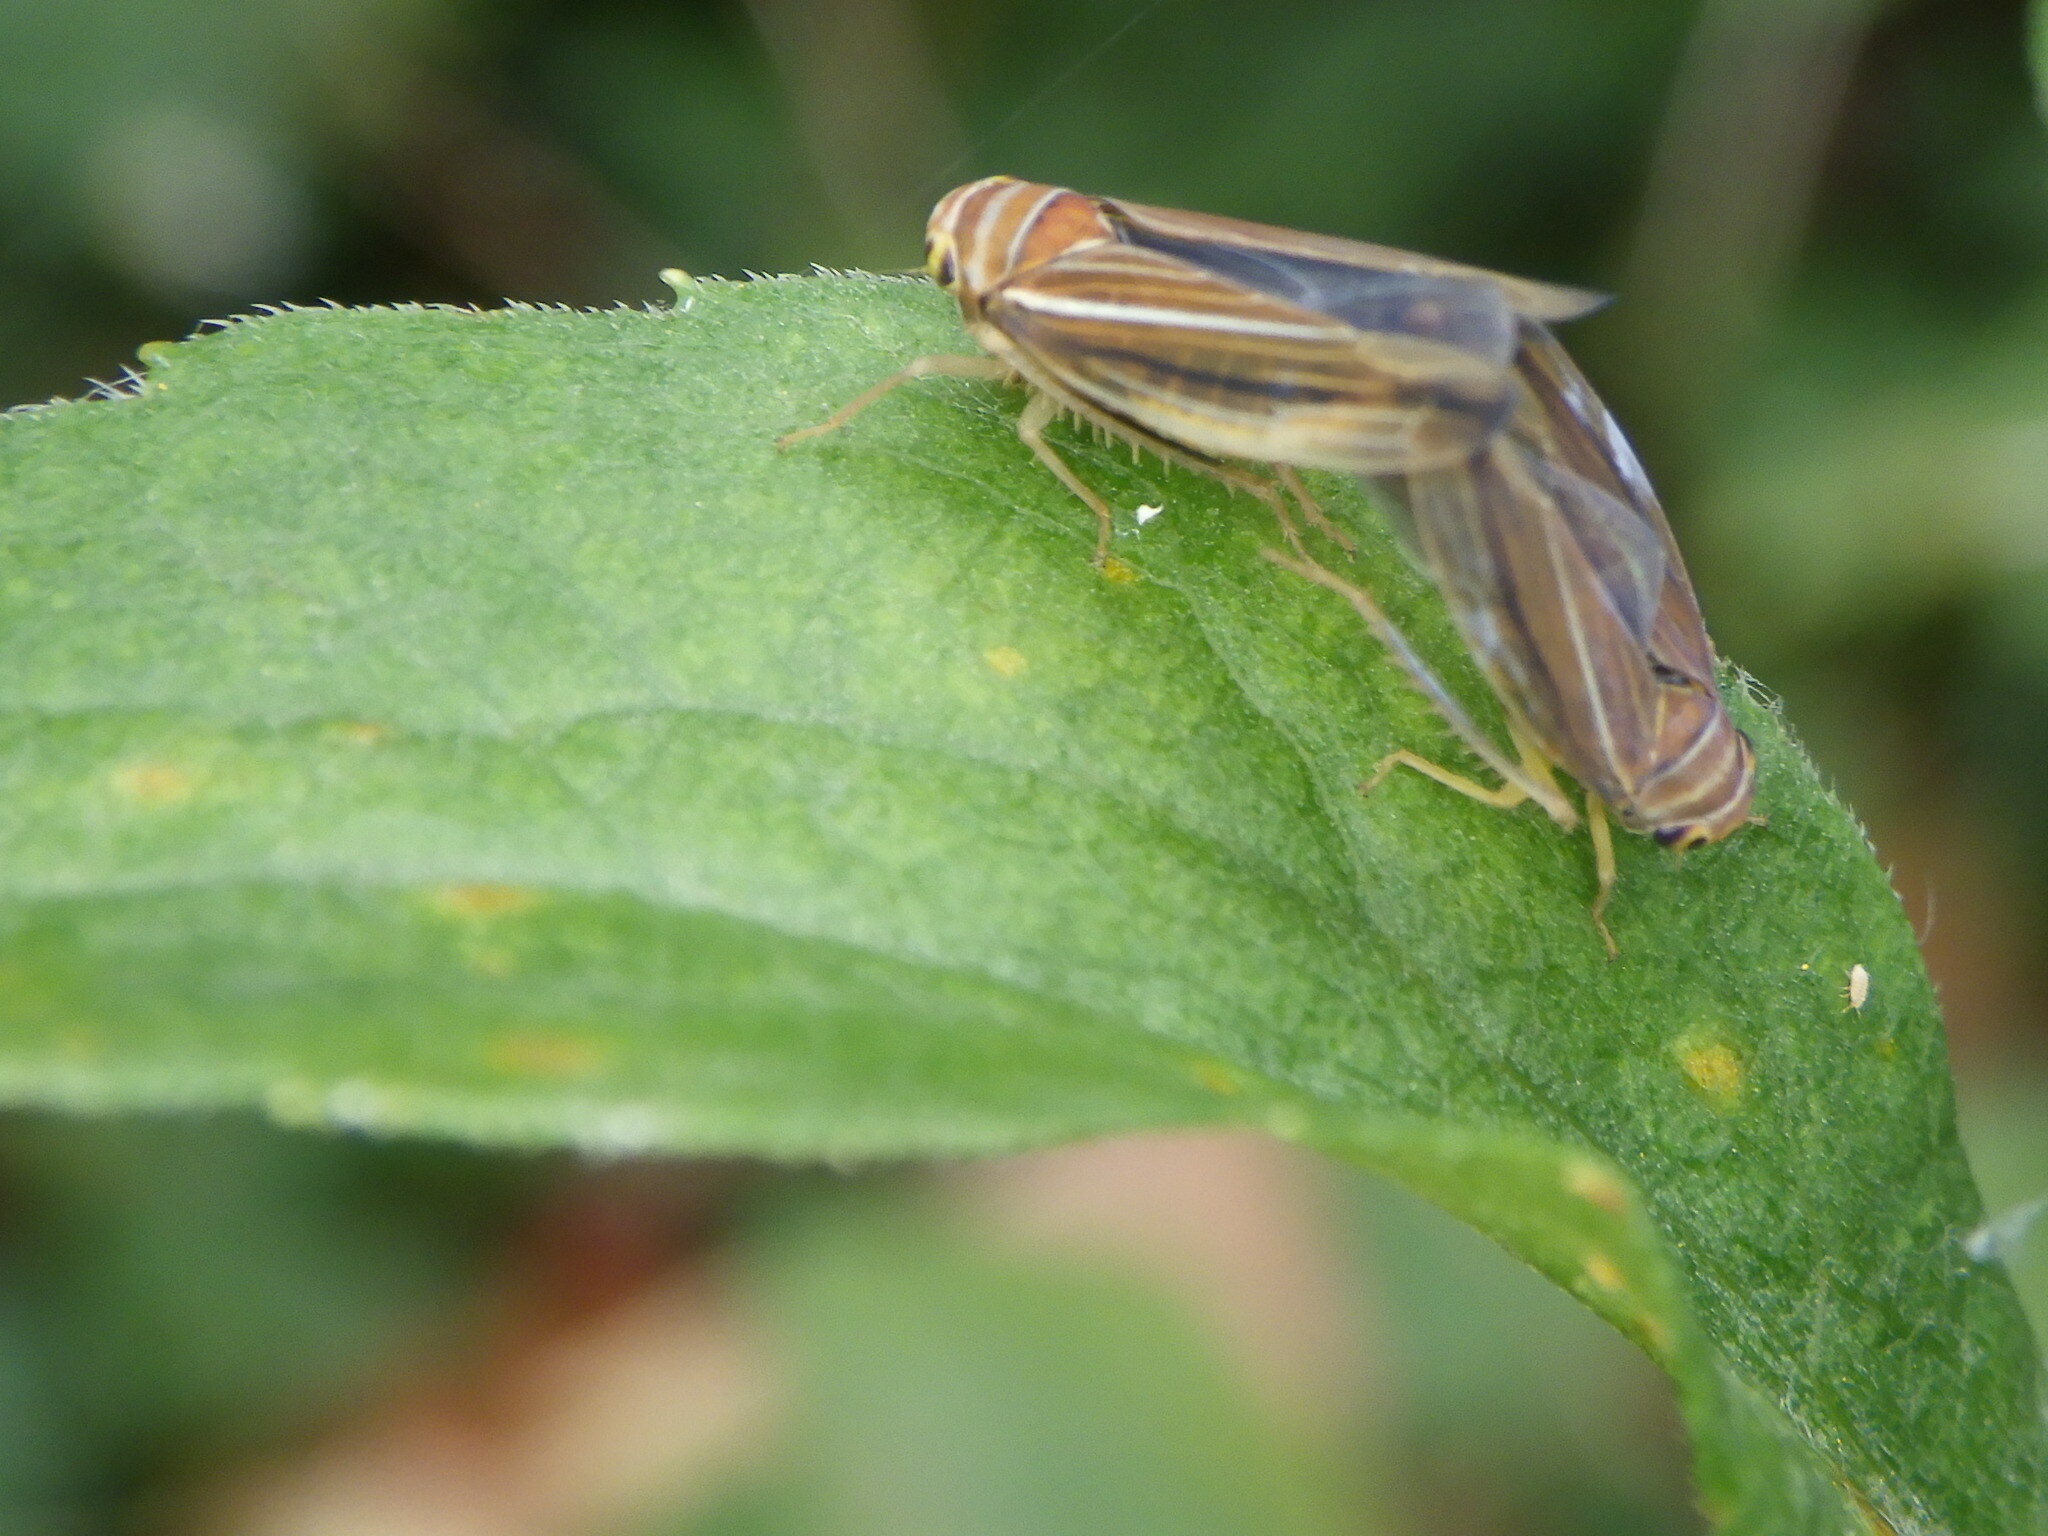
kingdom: Animalia
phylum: Arthropoda
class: Insecta
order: Hemiptera
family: Cicadellidae
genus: Idiodonus
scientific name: Idiodonus kennicotti
